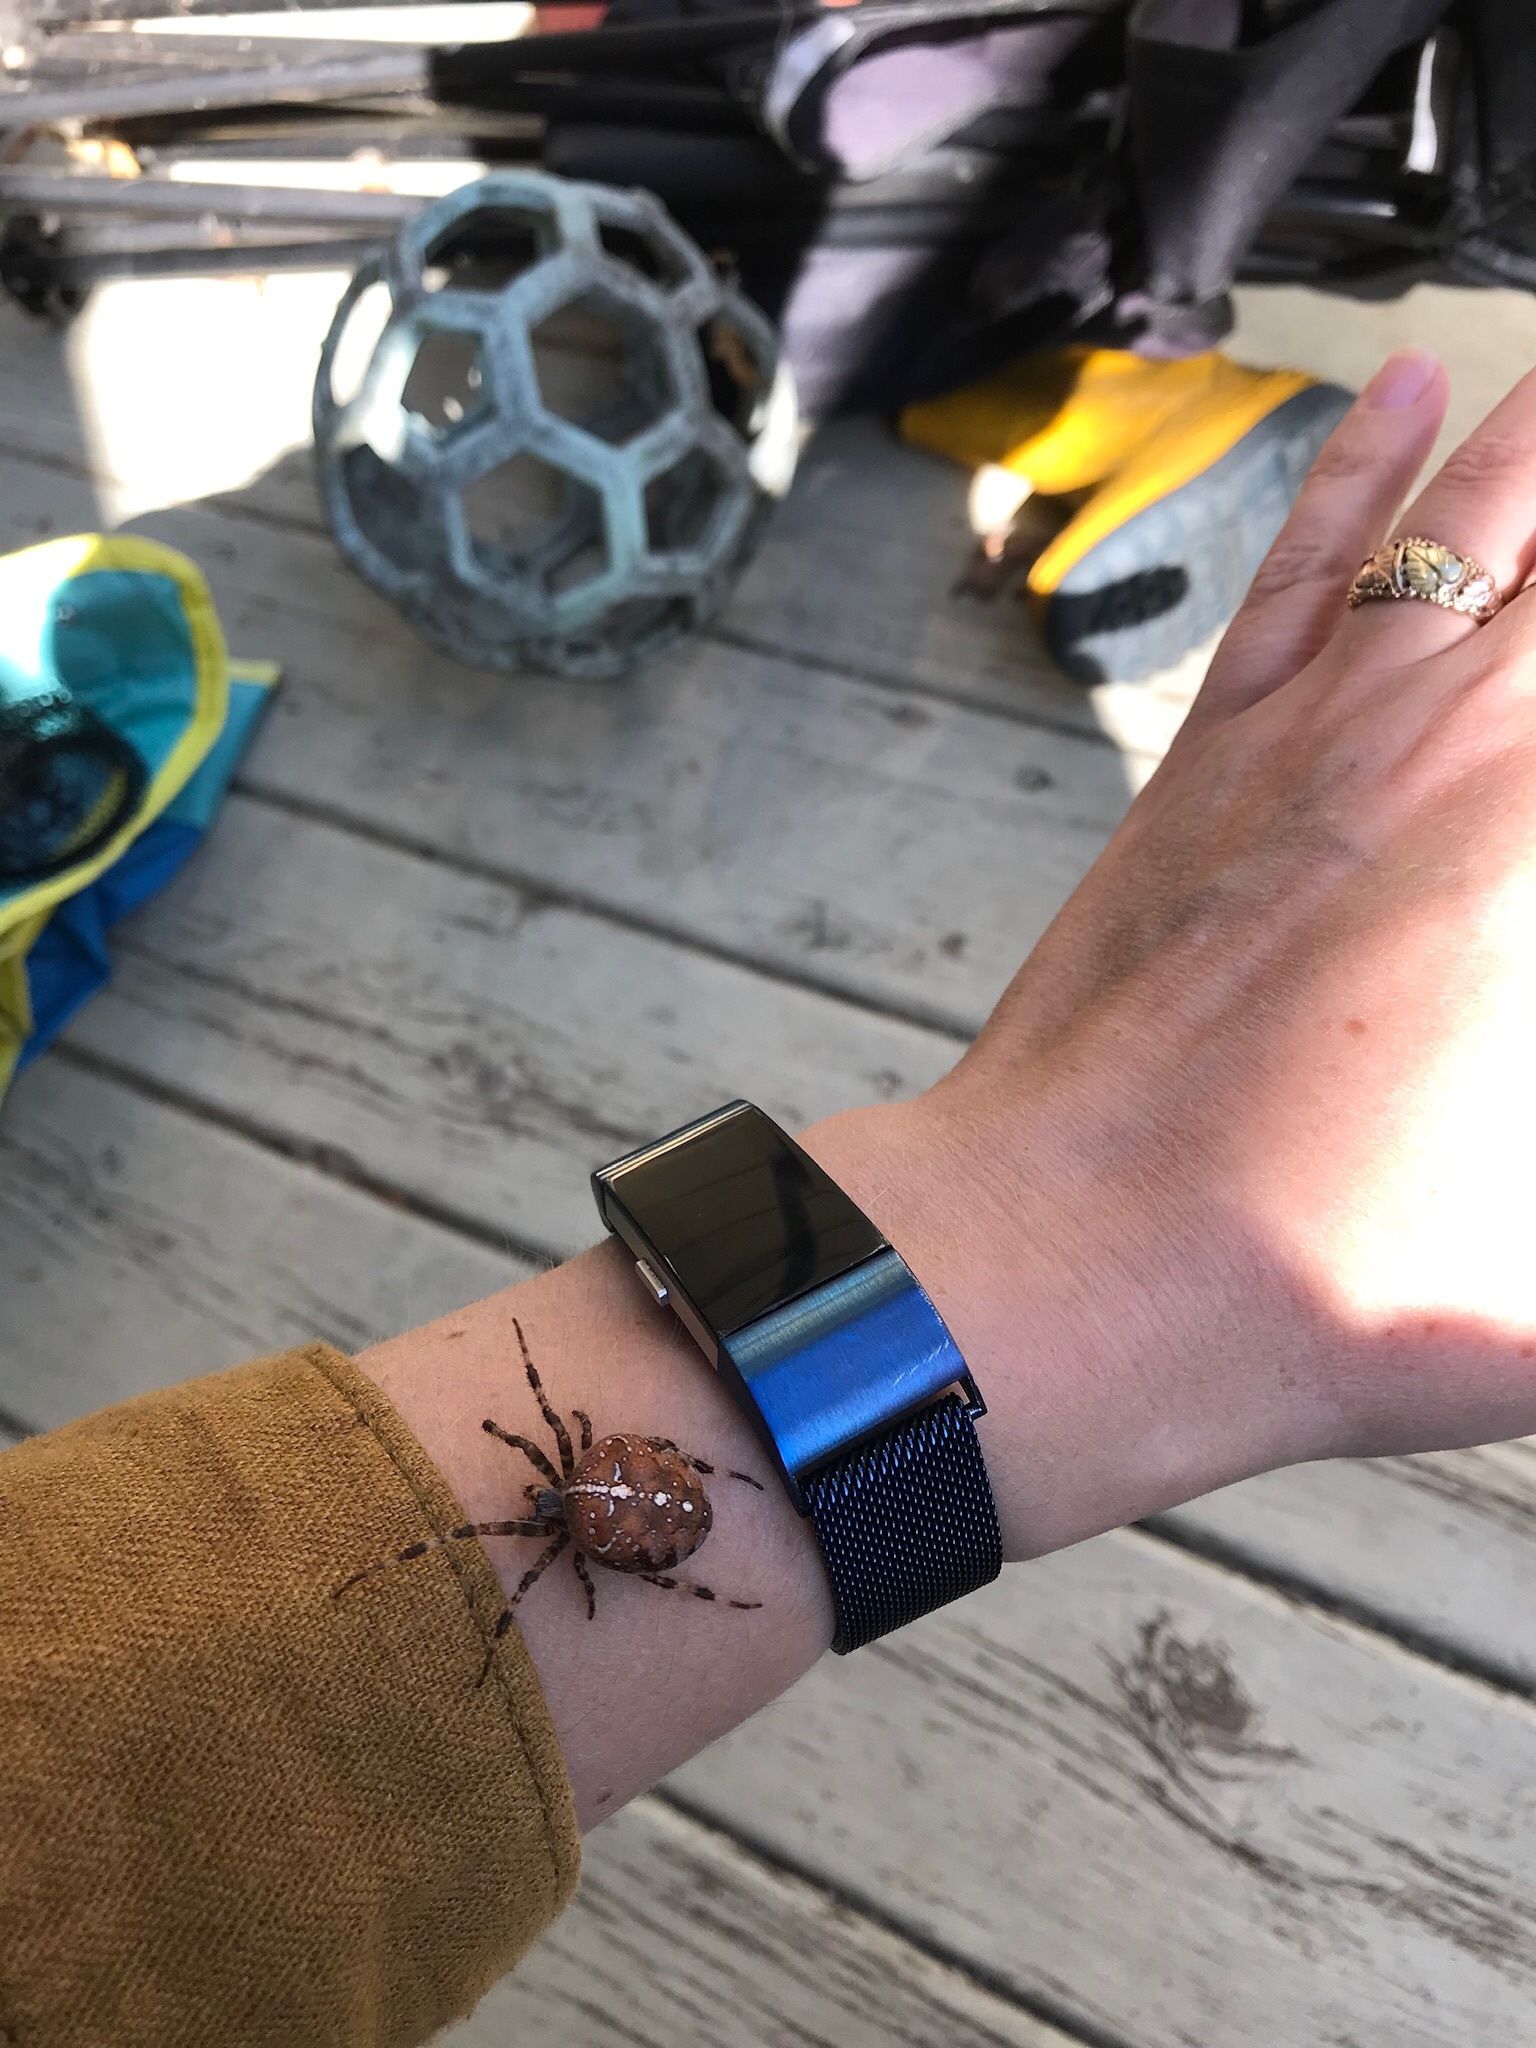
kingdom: Animalia
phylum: Arthropoda
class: Arachnida
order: Araneae
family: Araneidae
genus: Araneus
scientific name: Araneus diadematus
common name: Cross orbweaver
